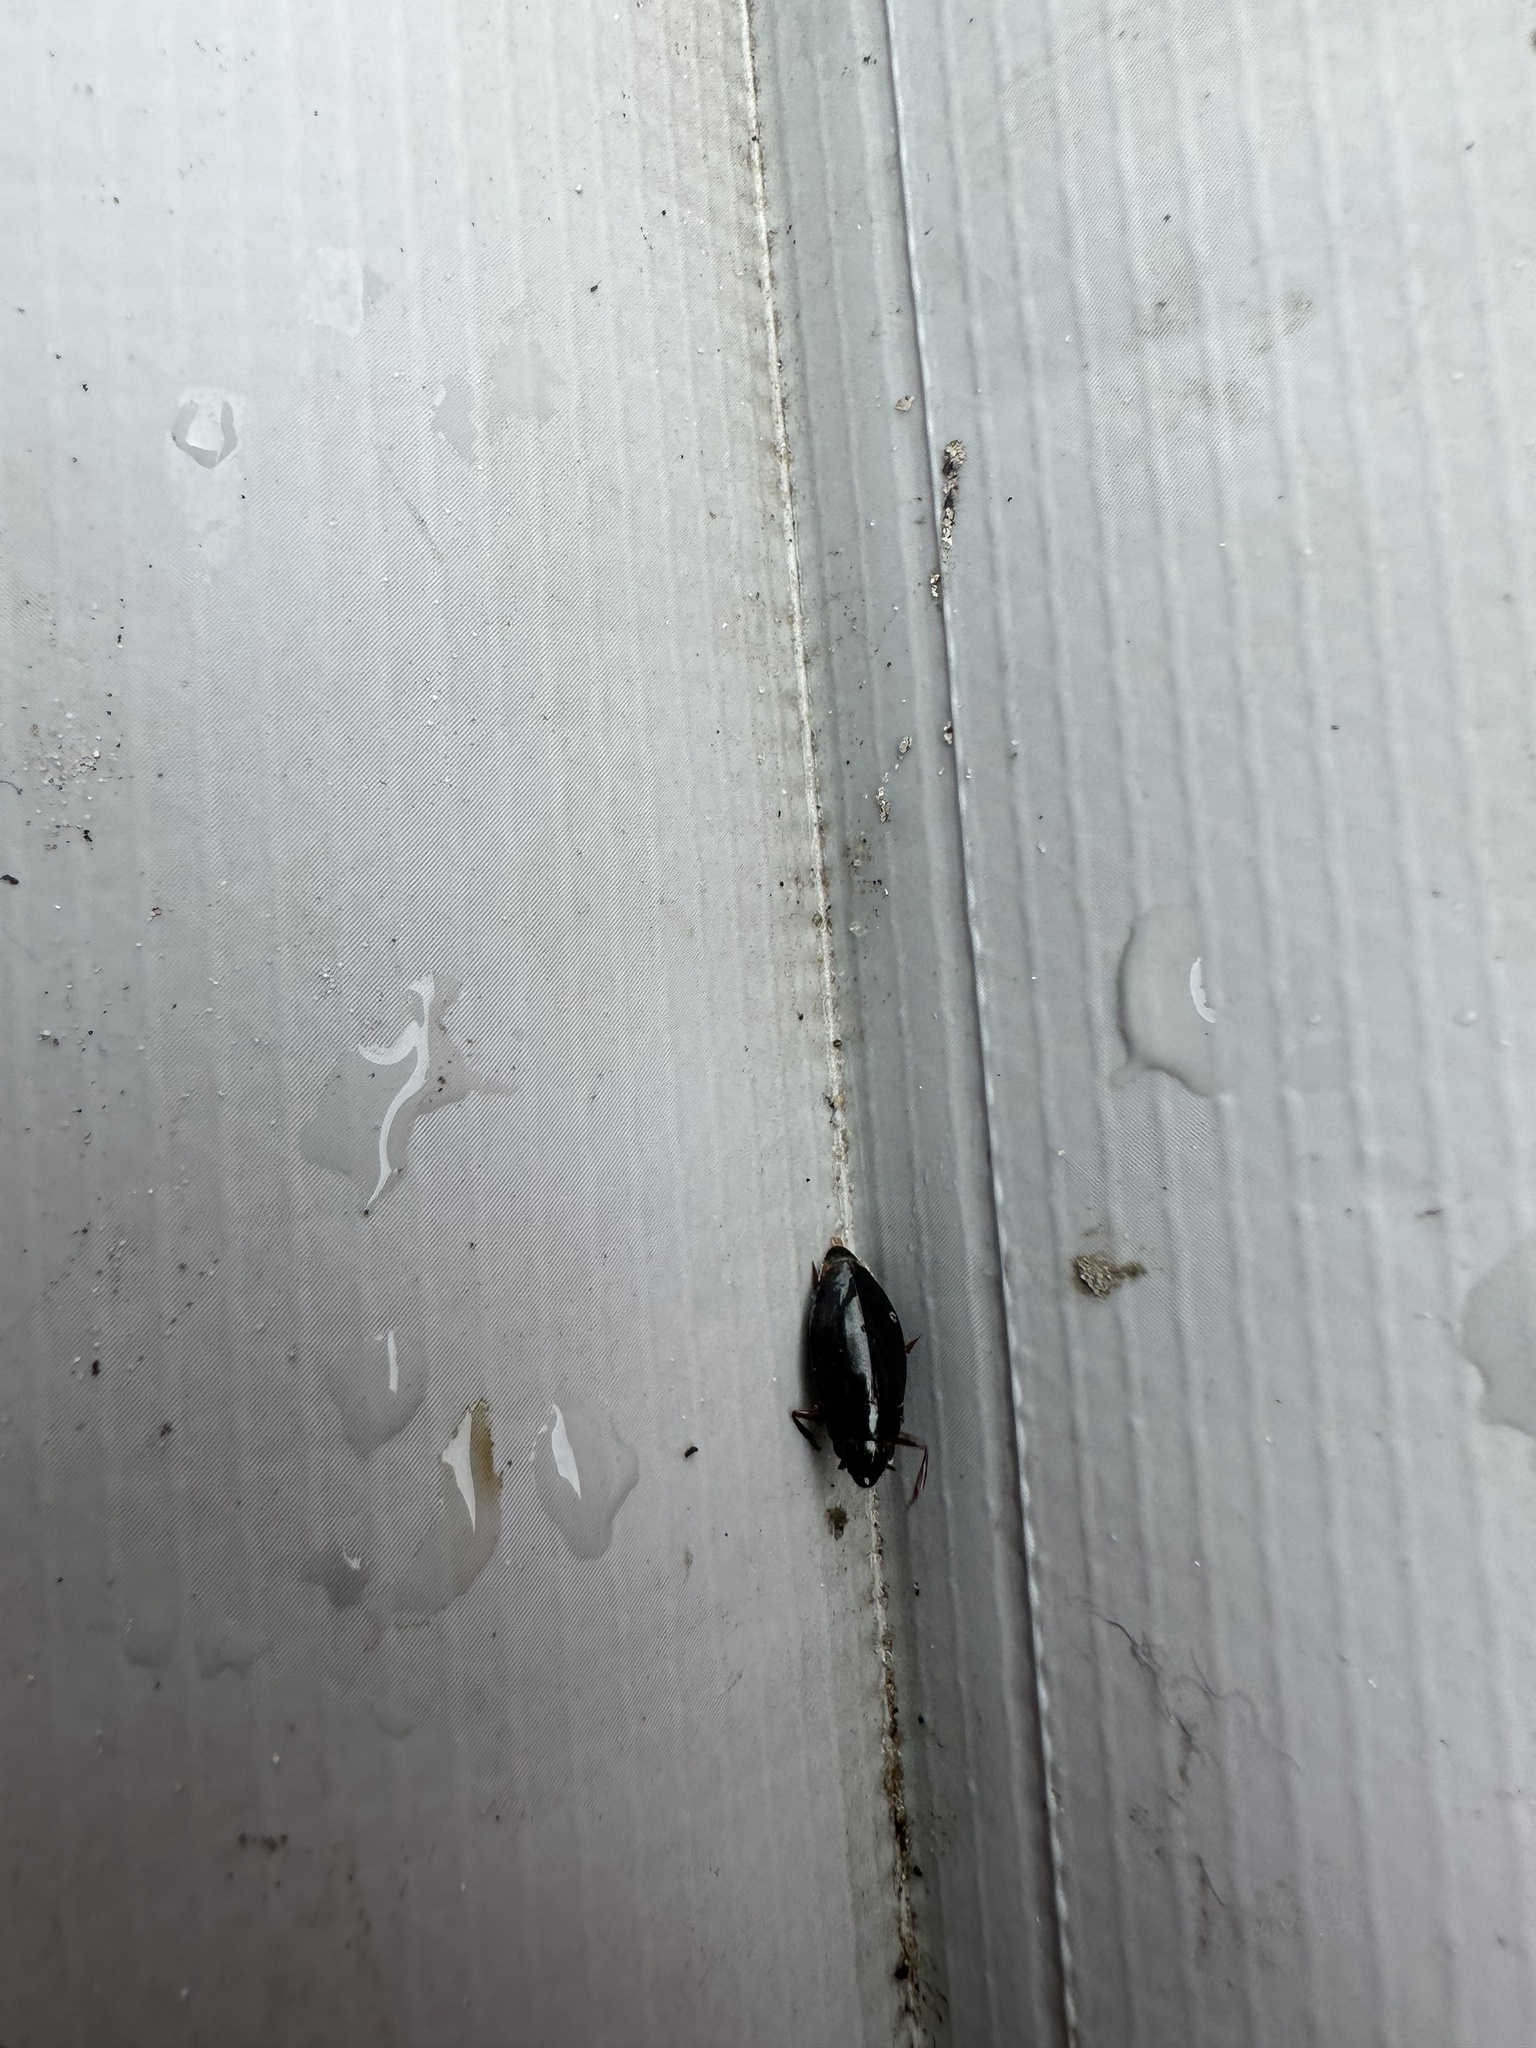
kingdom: Animalia
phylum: Arthropoda
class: Insecta
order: Coleoptera
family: Gyrinidae
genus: Dineutus
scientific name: Dineutus
